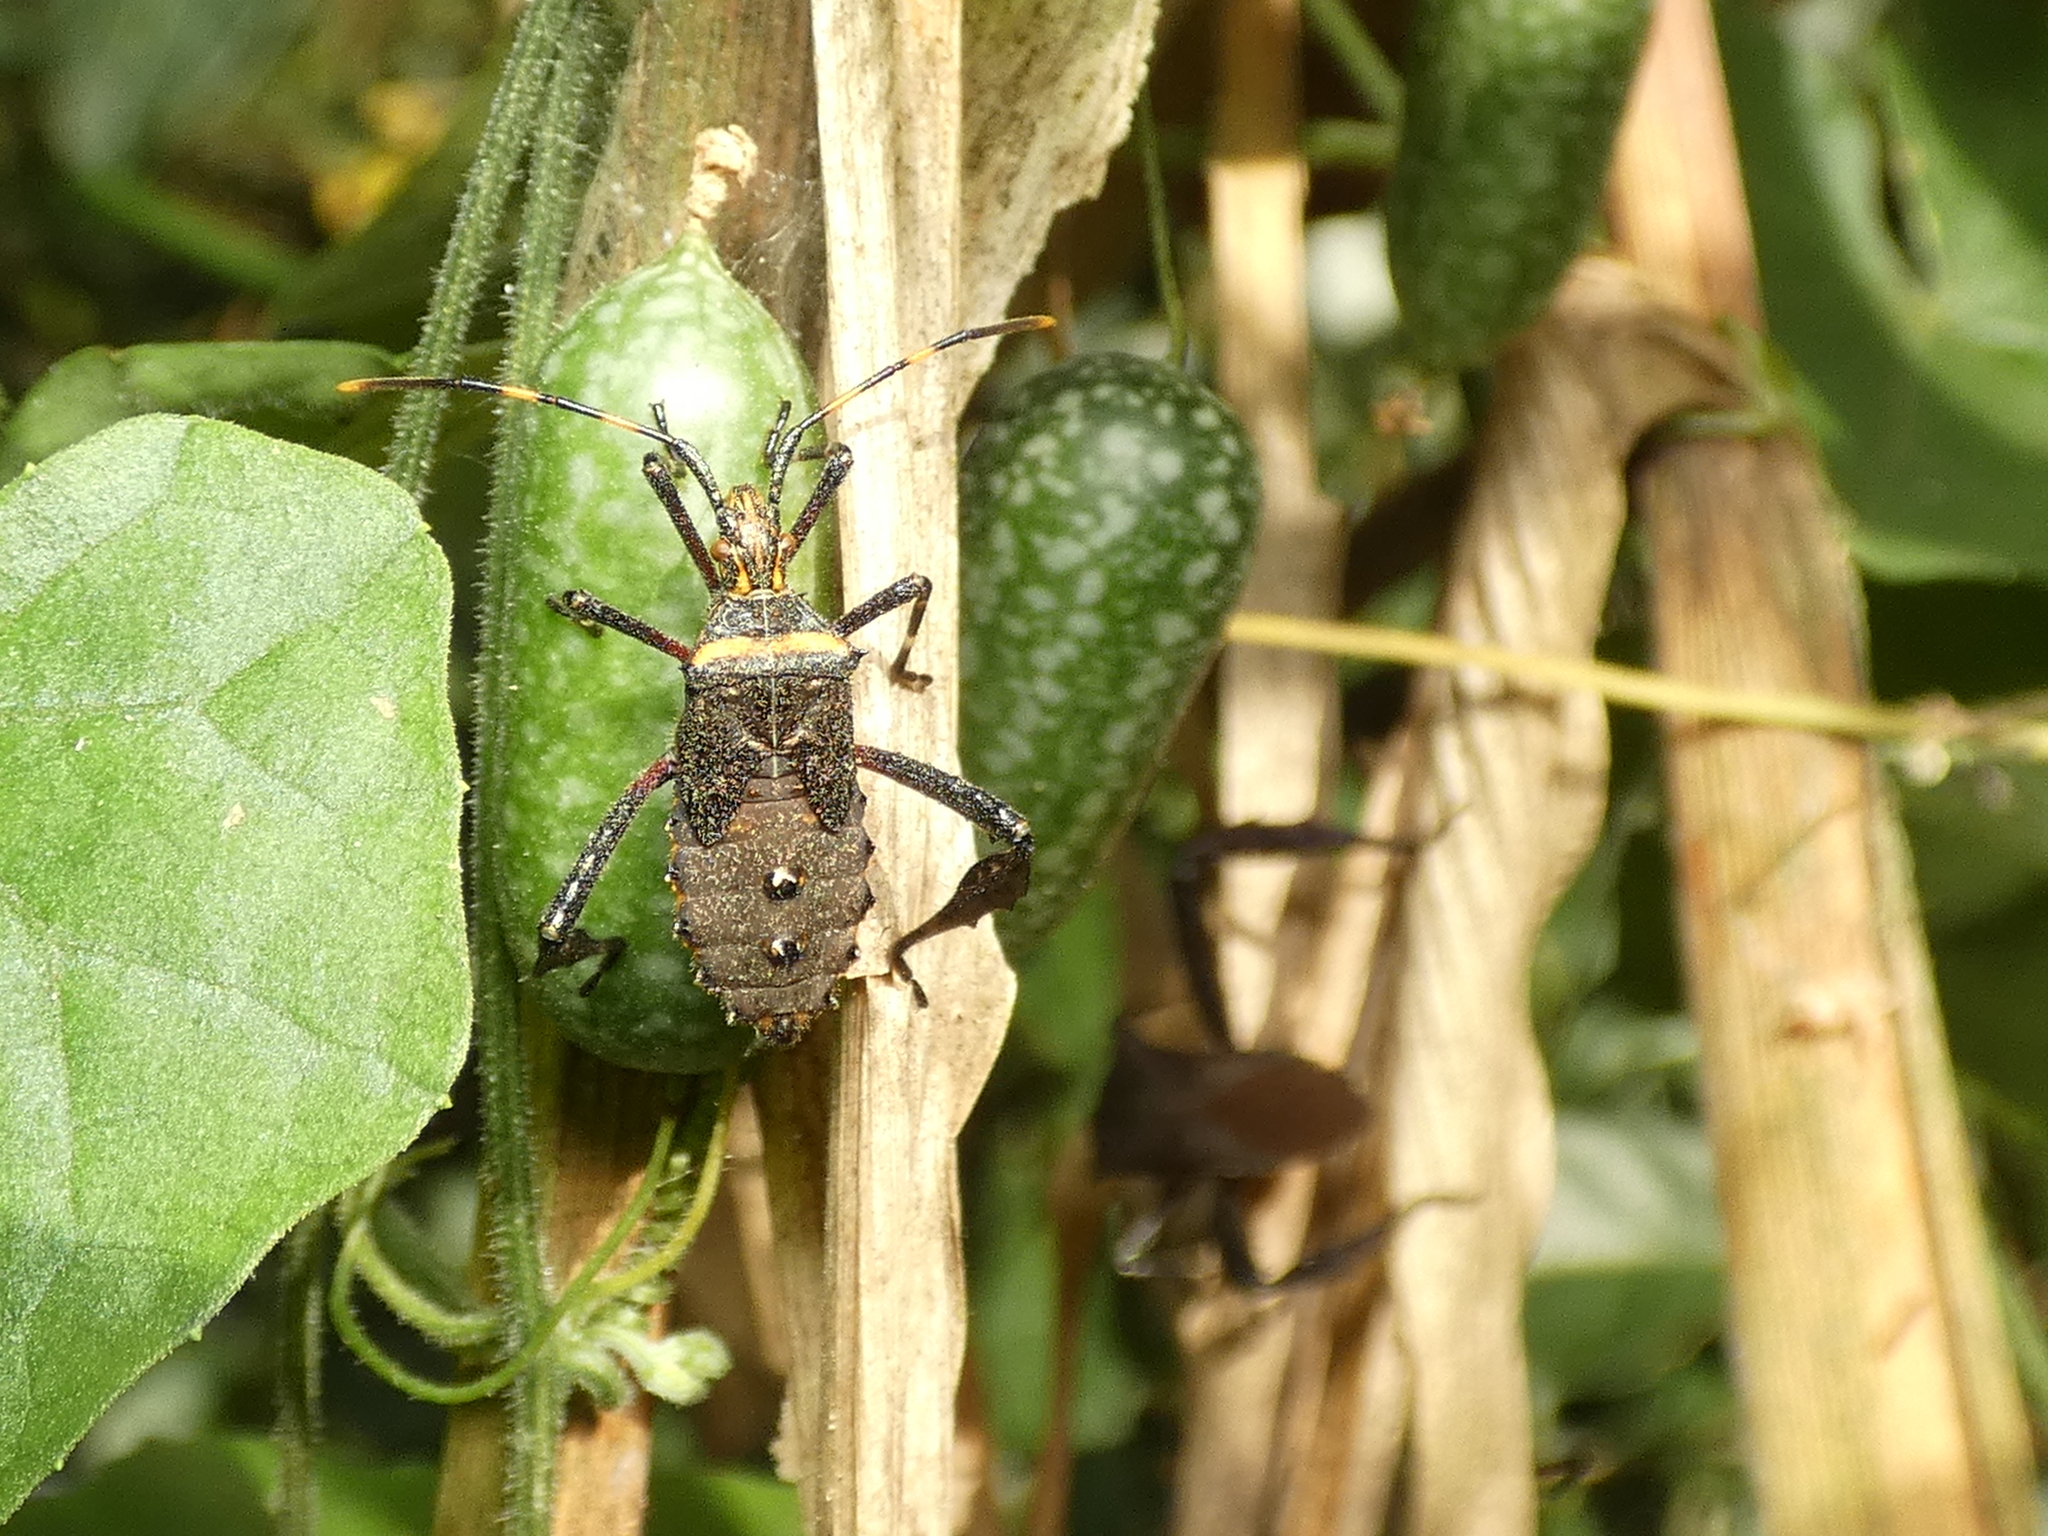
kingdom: Animalia
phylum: Arthropoda
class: Insecta
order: Hemiptera
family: Coreidae
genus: Leptoglossus
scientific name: Leptoglossus gonagra
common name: Citron bug
